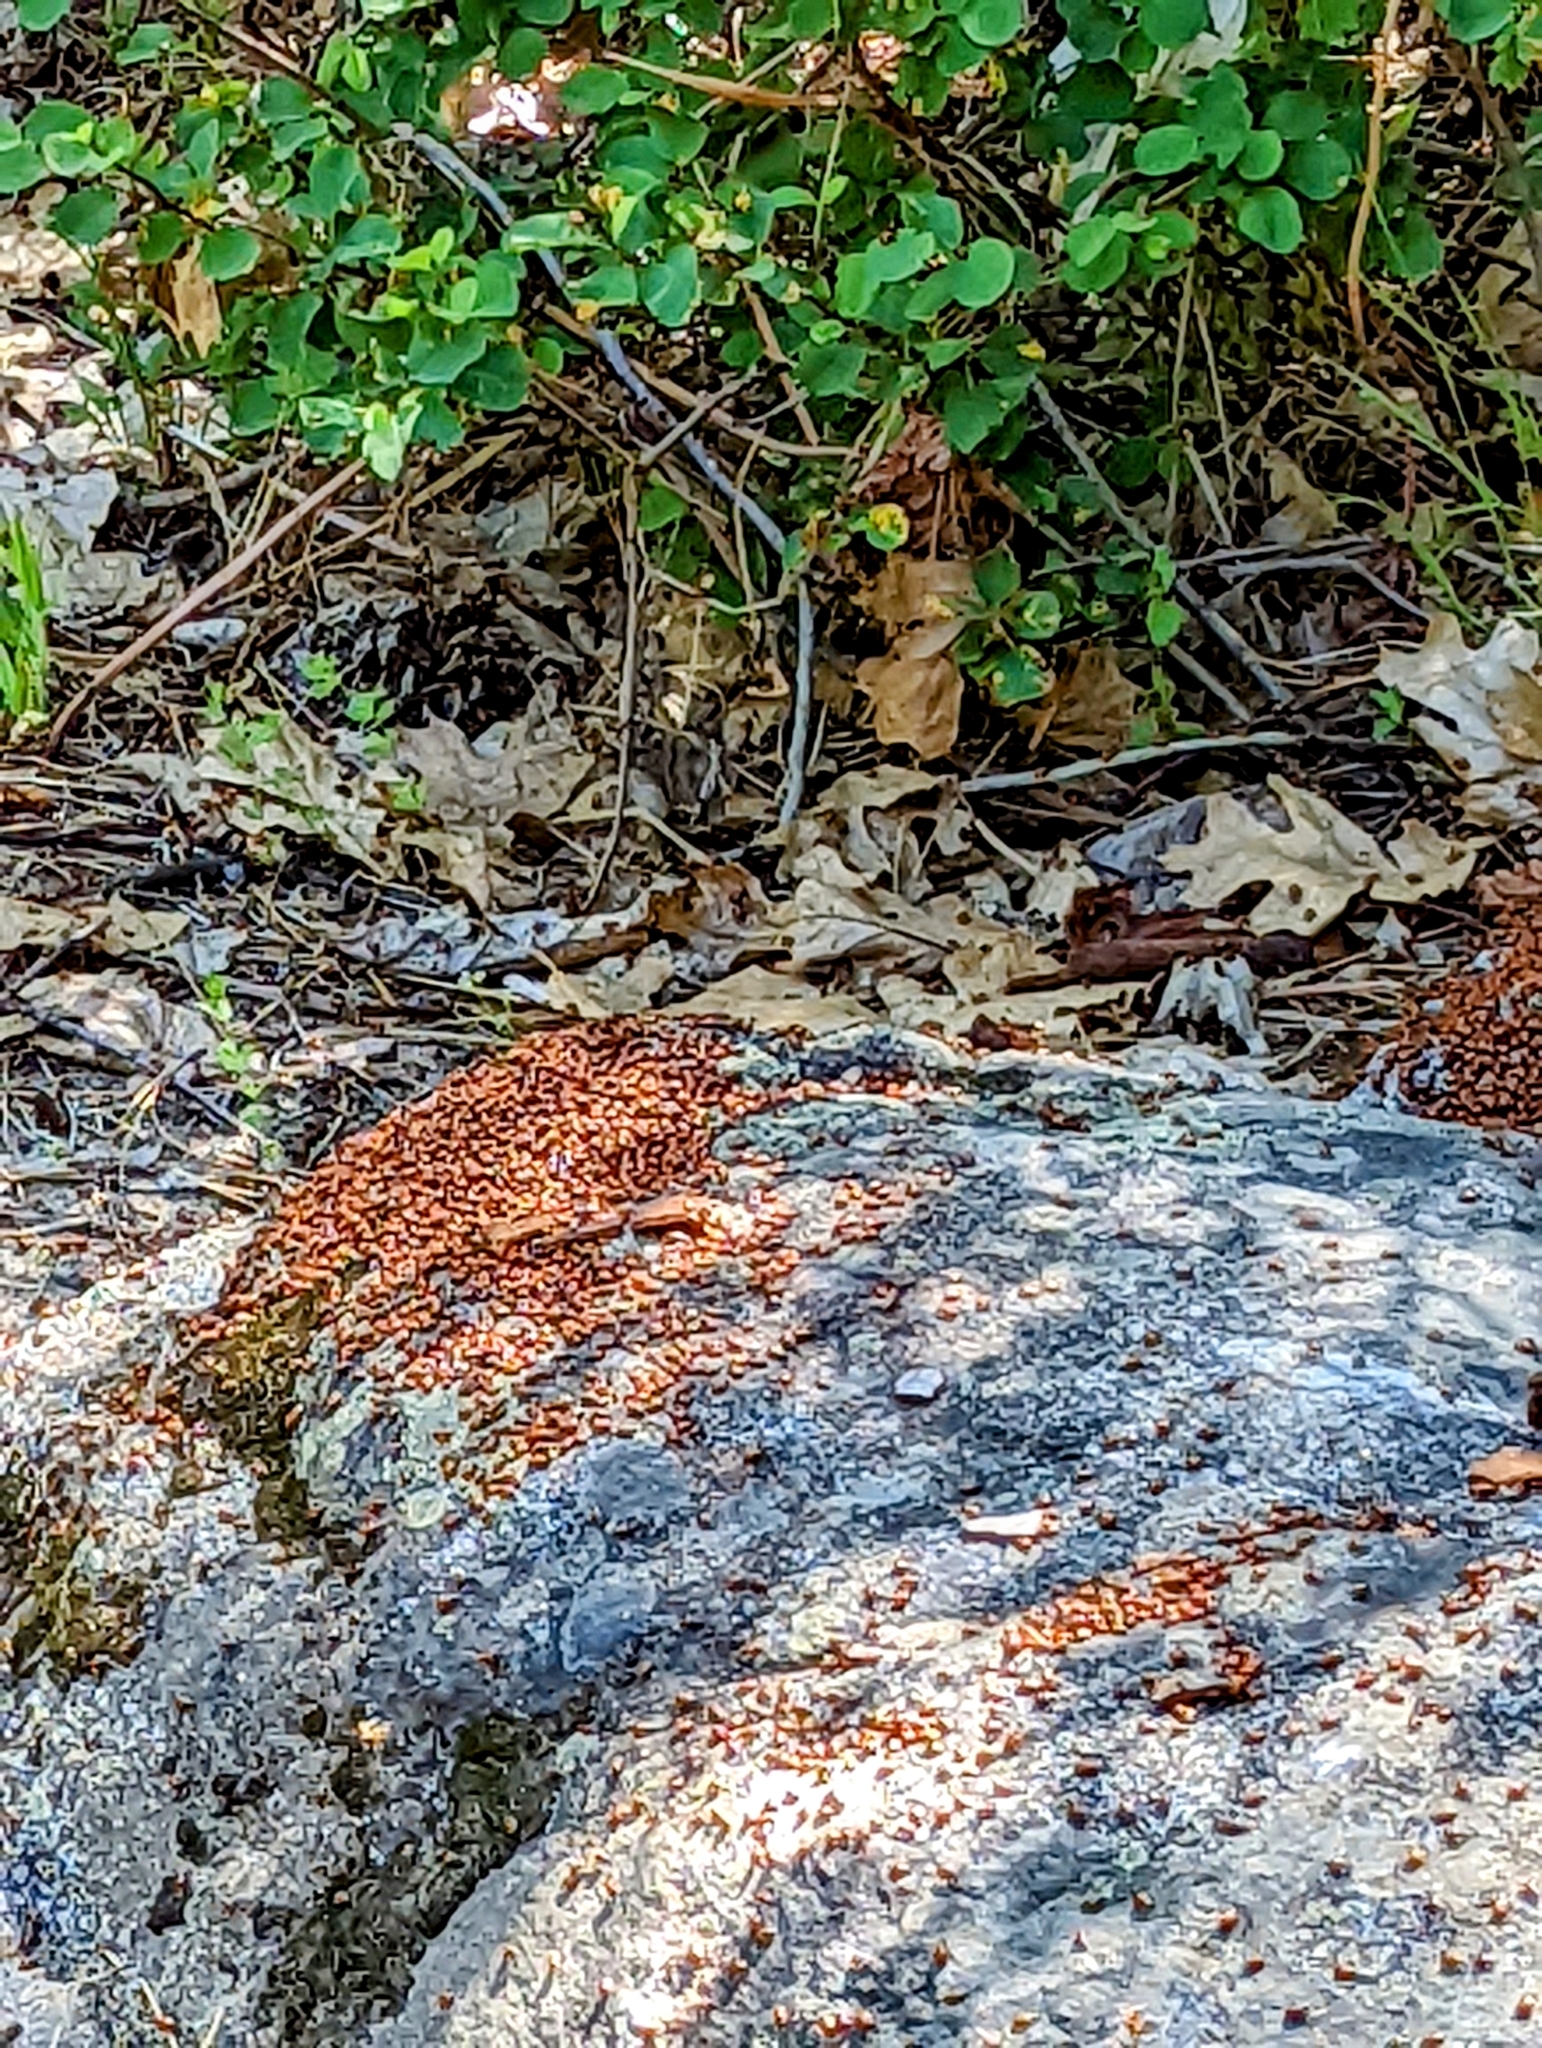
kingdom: Animalia
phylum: Arthropoda
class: Insecta
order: Coleoptera
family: Coccinellidae
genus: Hippodamia
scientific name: Hippodamia convergens
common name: Convergent lady beetle
